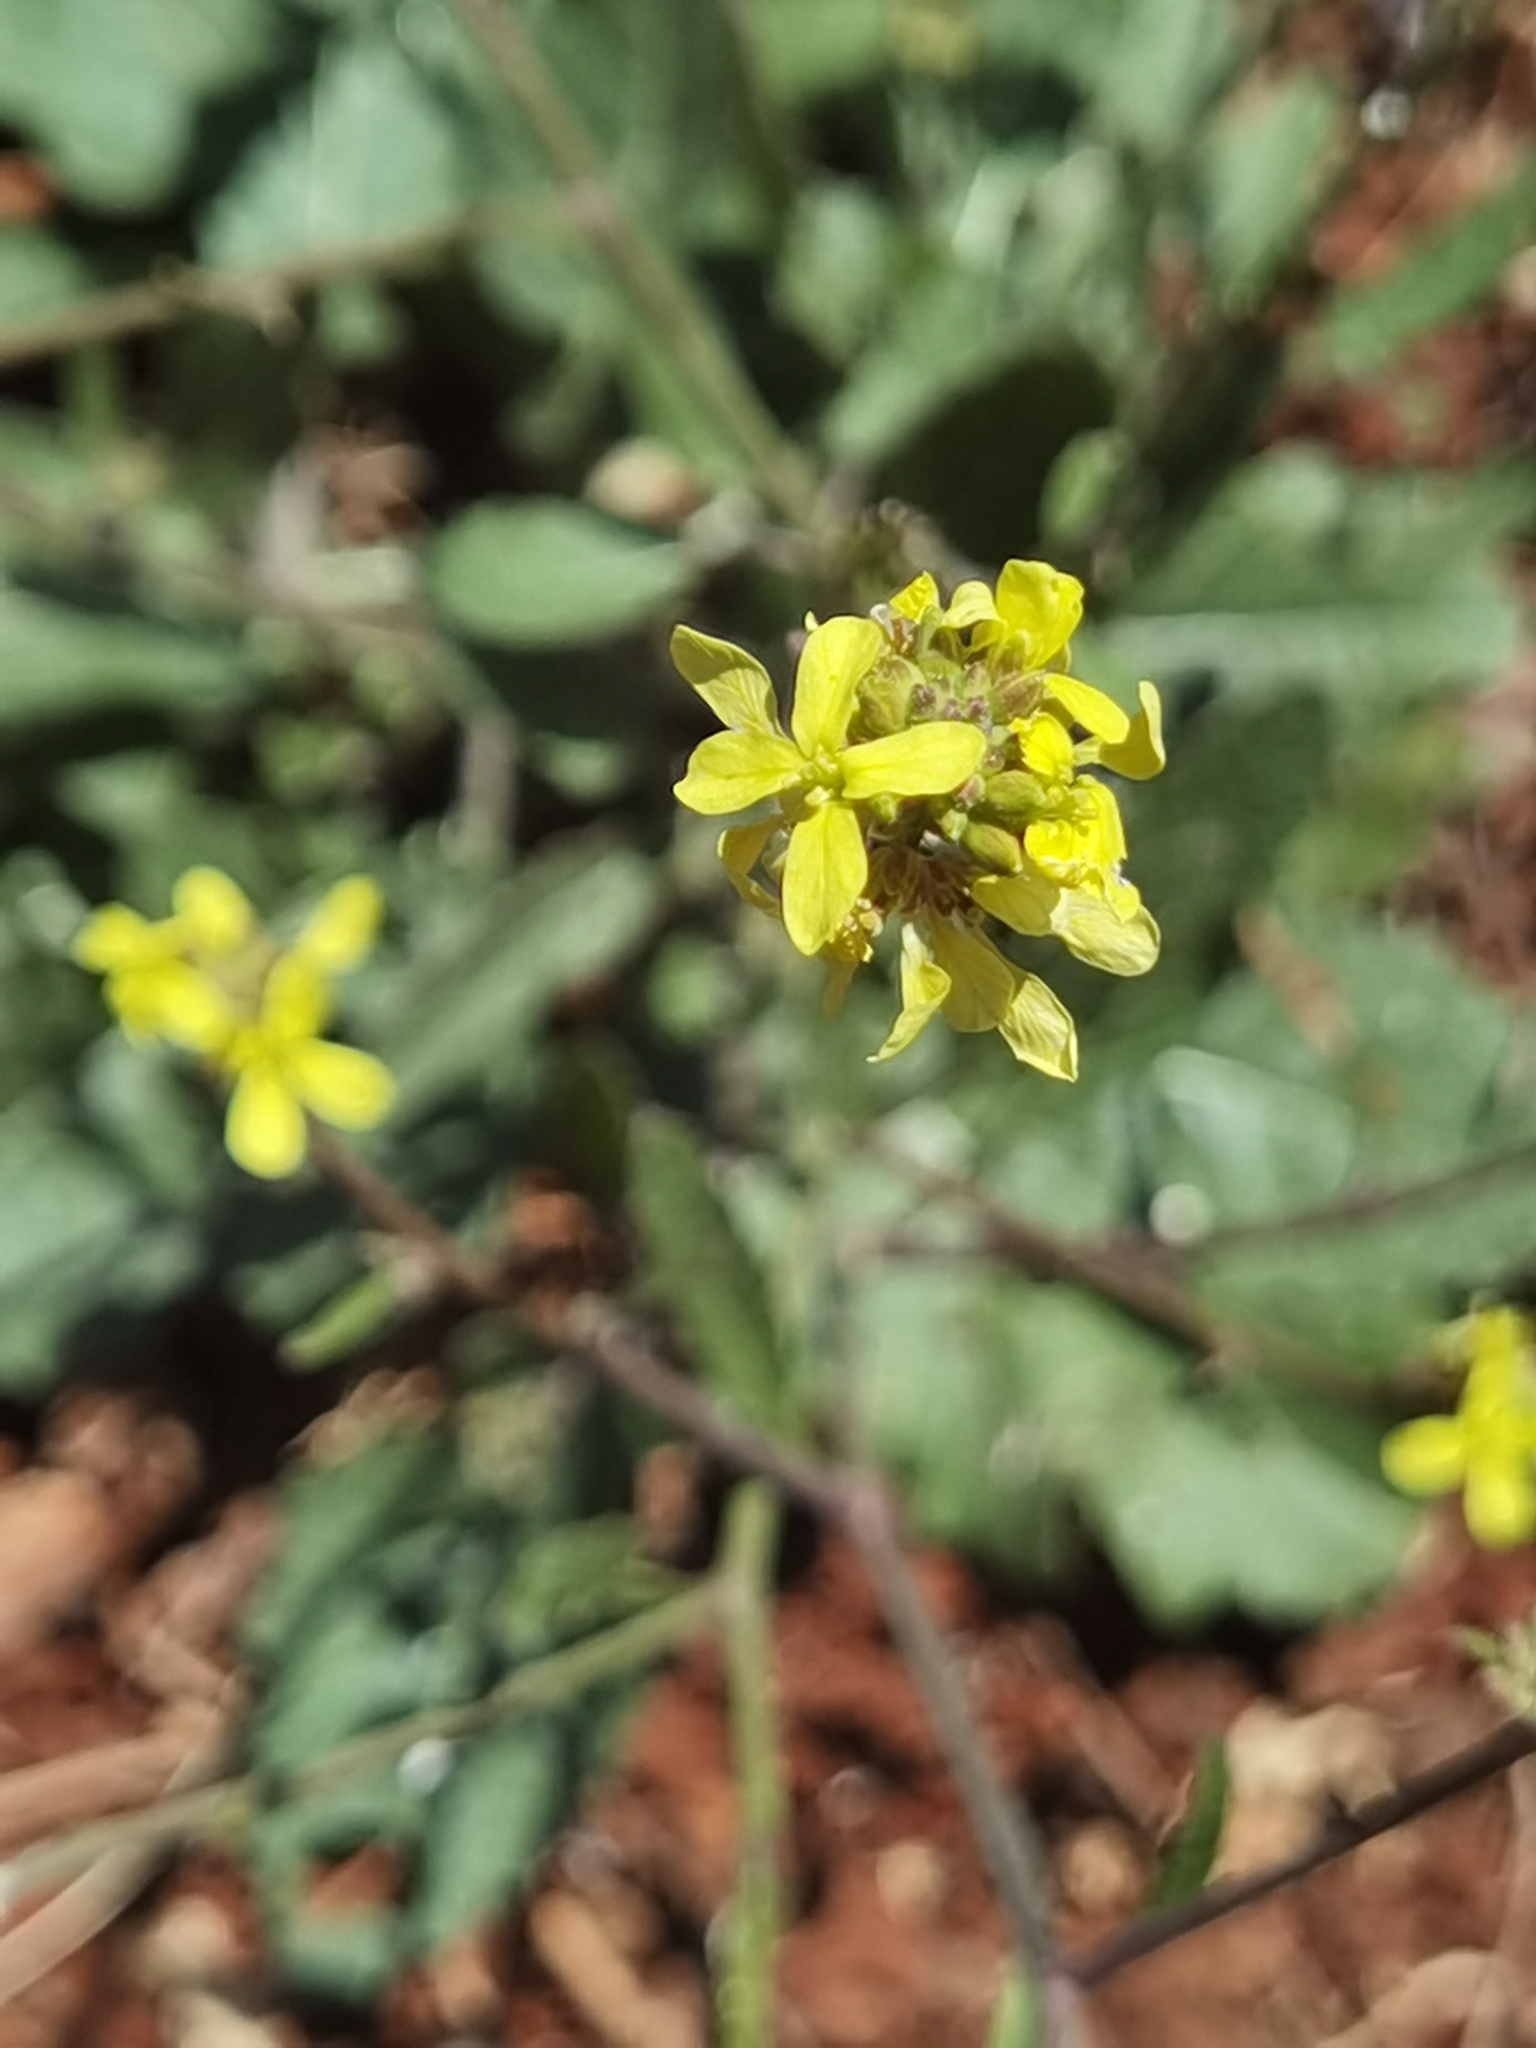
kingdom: Plantae
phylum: Tracheophyta
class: Magnoliopsida
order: Brassicales
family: Brassicaceae
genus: Hirschfeldia
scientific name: Hirschfeldia incana
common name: Hoary mustard
